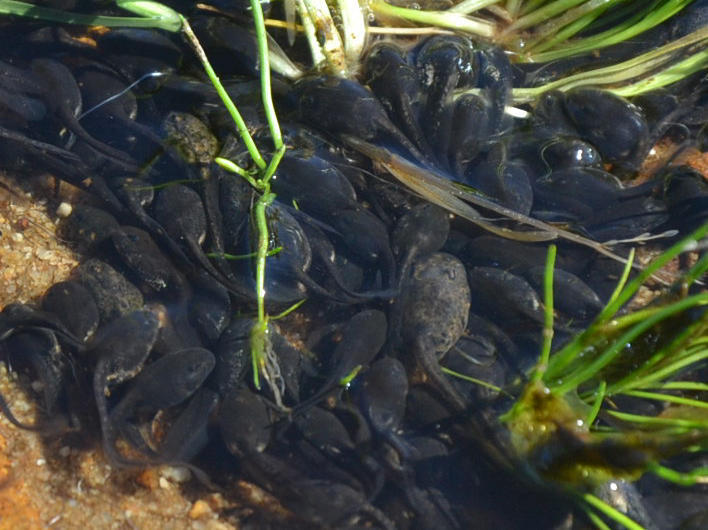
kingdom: Animalia
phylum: Chordata
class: Amphibia
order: Anura
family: Bufonidae
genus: Vandijkophrynus
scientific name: Vandijkophrynus angusticeps
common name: Sand toad
